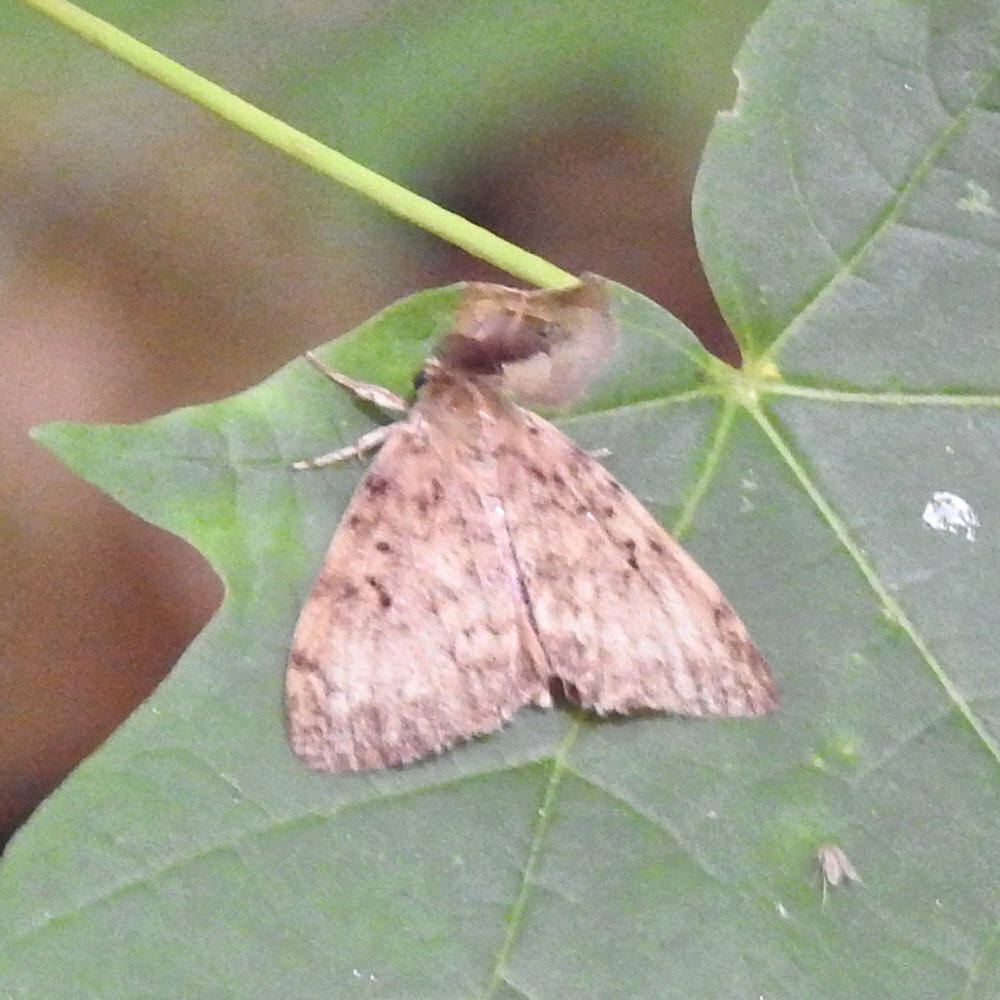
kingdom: Animalia
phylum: Arthropoda
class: Insecta
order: Lepidoptera
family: Erebidae
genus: Lymantria
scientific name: Lymantria dispar
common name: Gypsy moth
